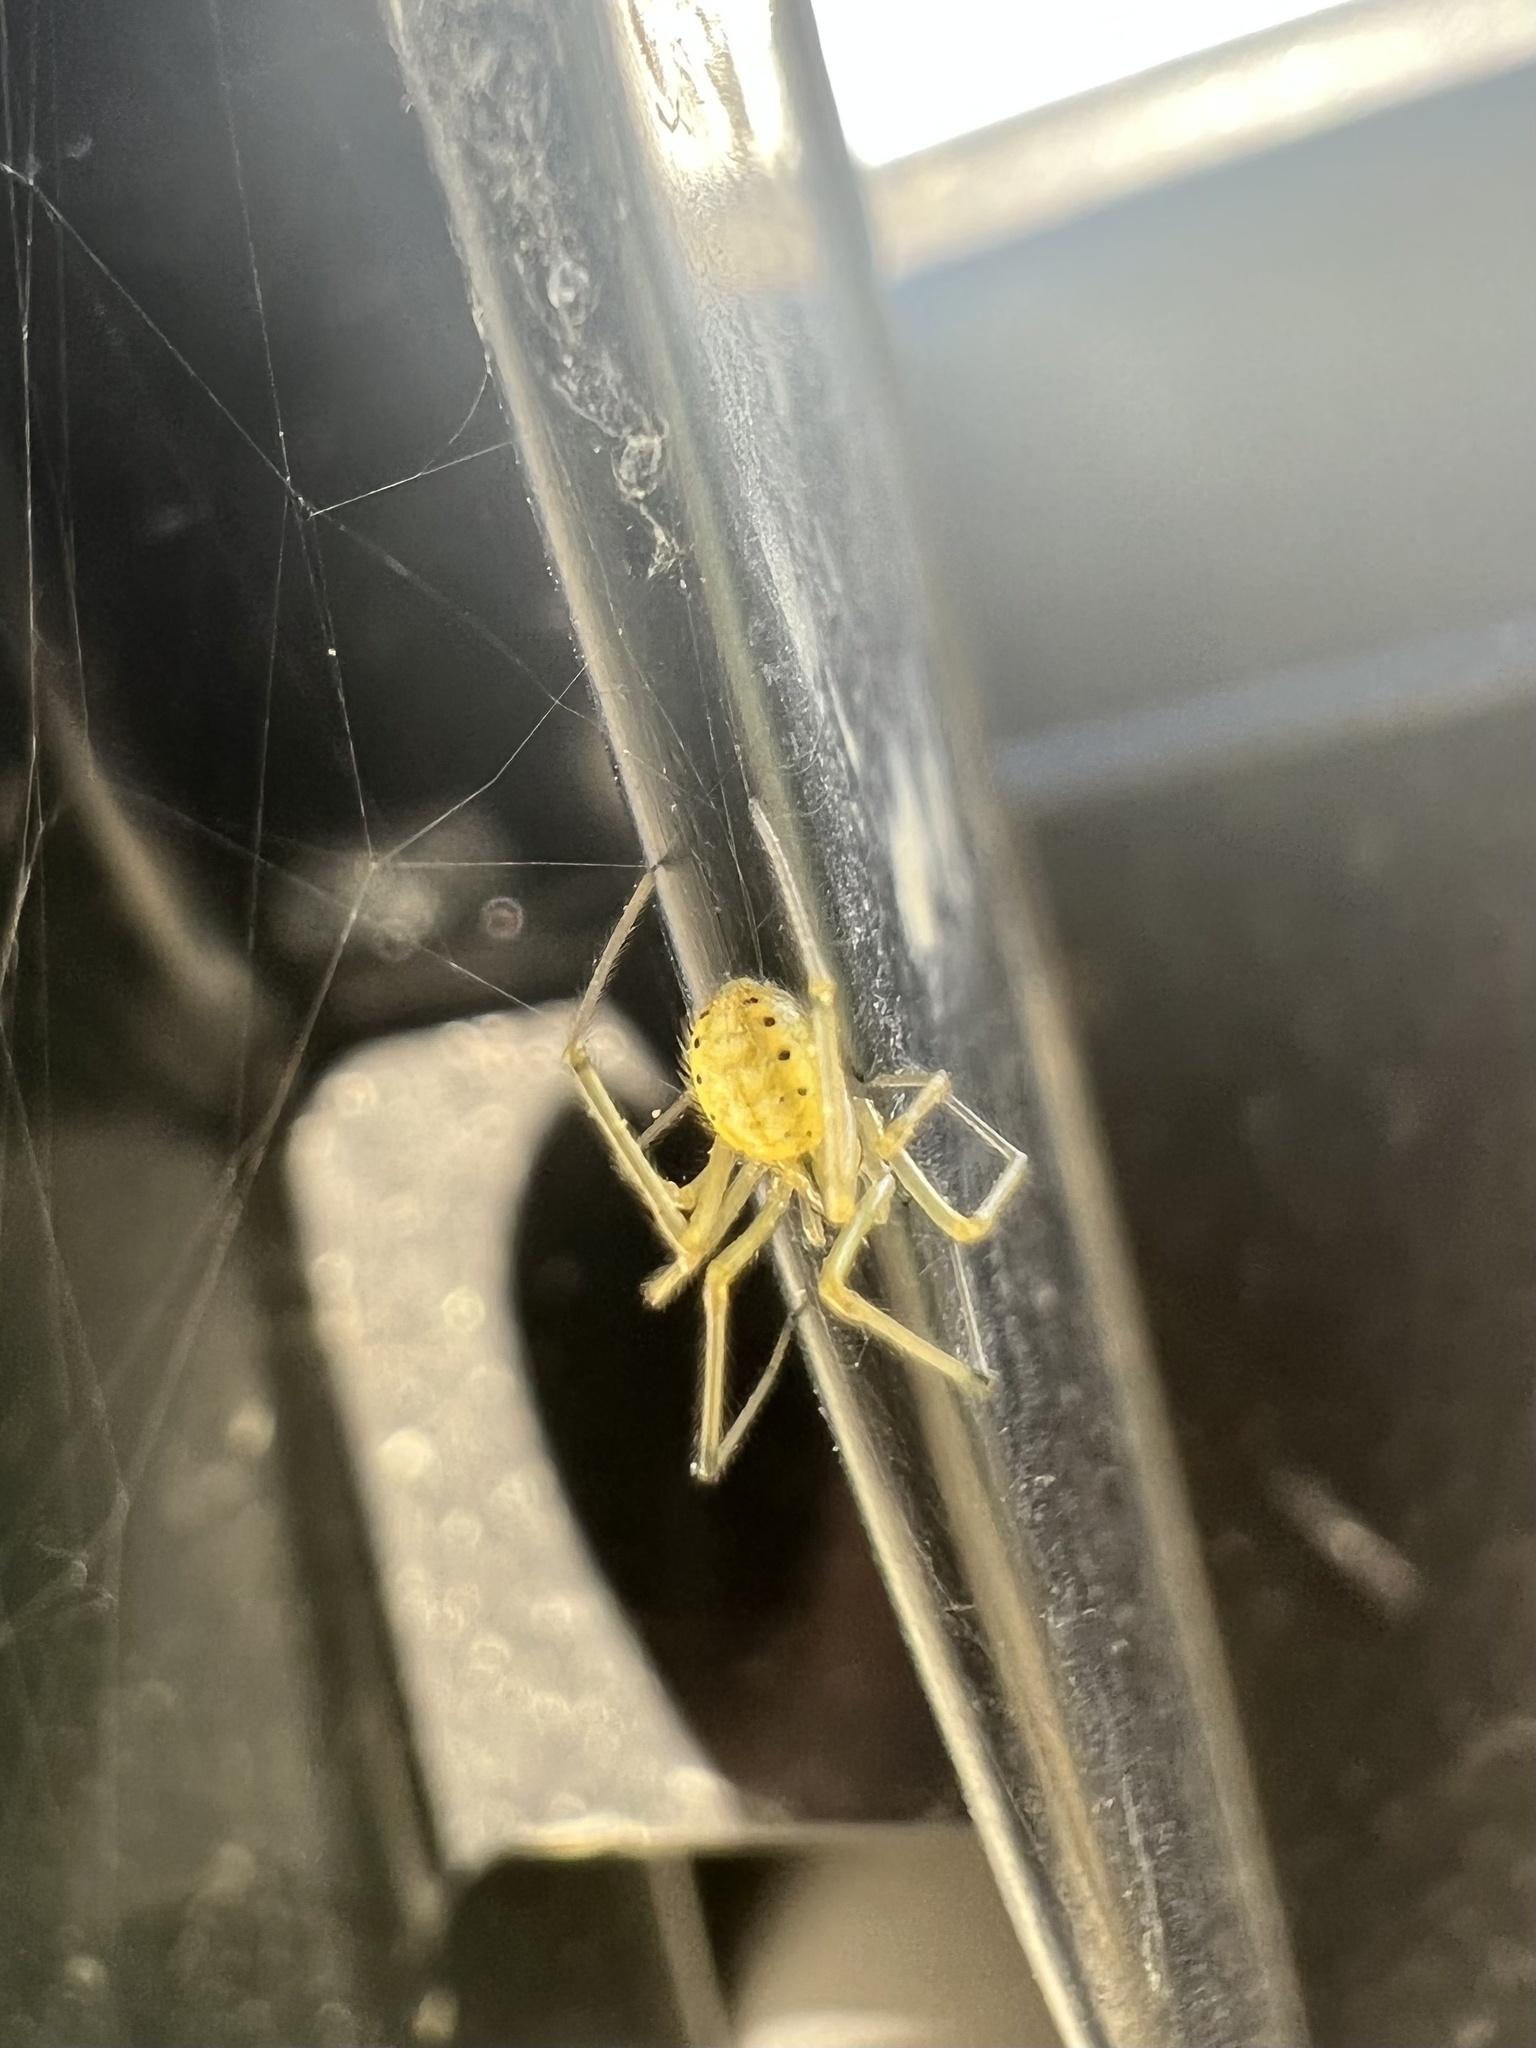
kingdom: Animalia
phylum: Arthropoda
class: Arachnida
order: Araneae
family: Theridiidae
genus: Enoplognatha
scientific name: Enoplognatha ovata
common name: Common candy-striped spider
